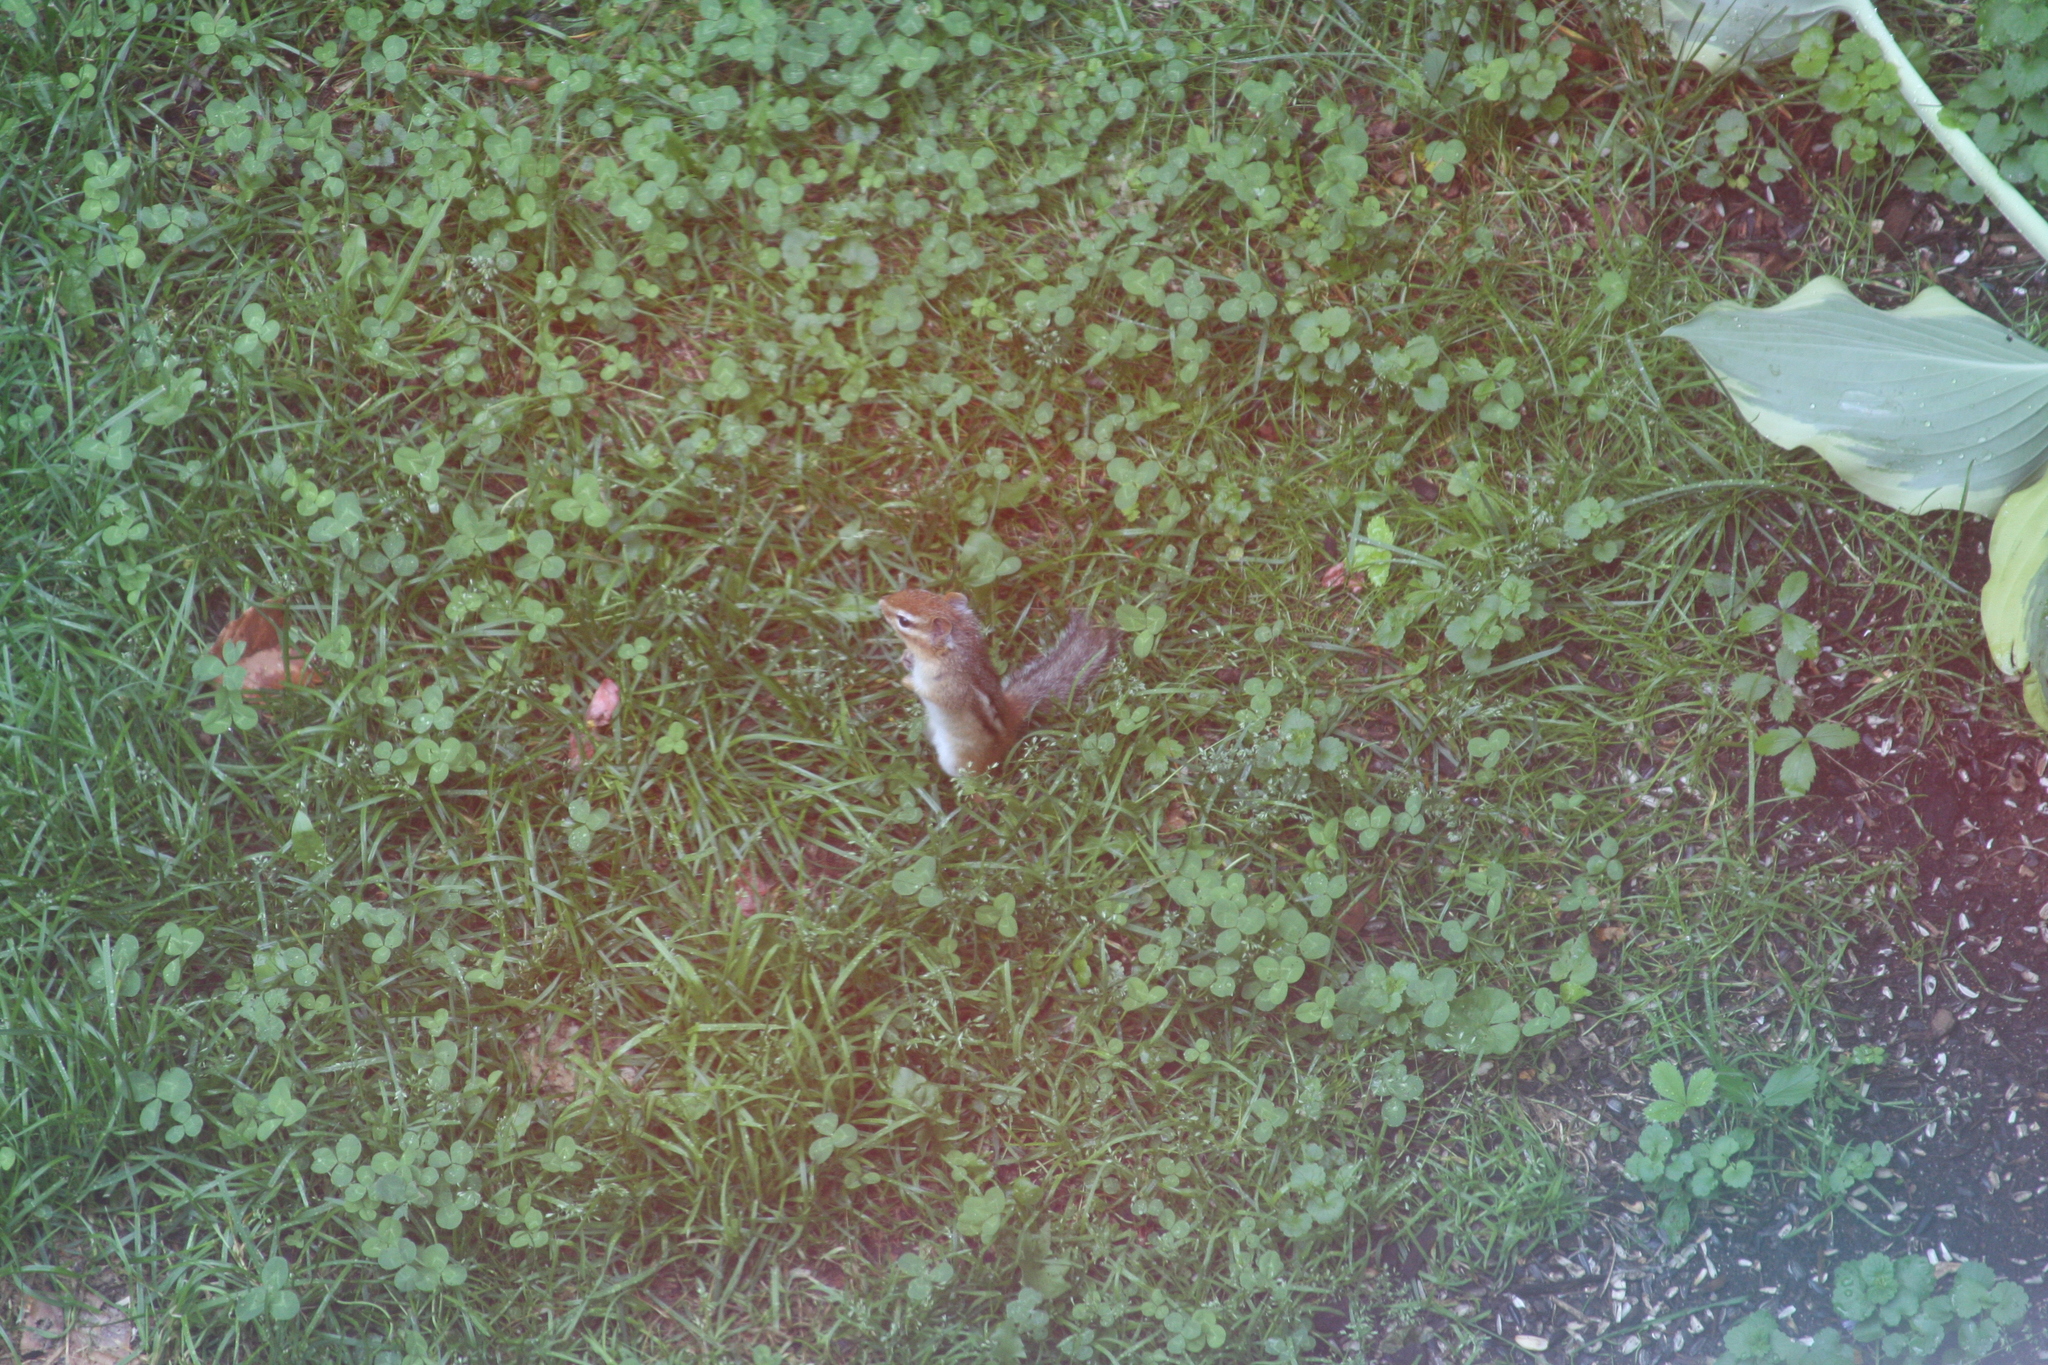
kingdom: Animalia
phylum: Chordata
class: Mammalia
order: Rodentia
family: Sciuridae
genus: Tamias
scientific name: Tamias striatus
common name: Eastern chipmunk
